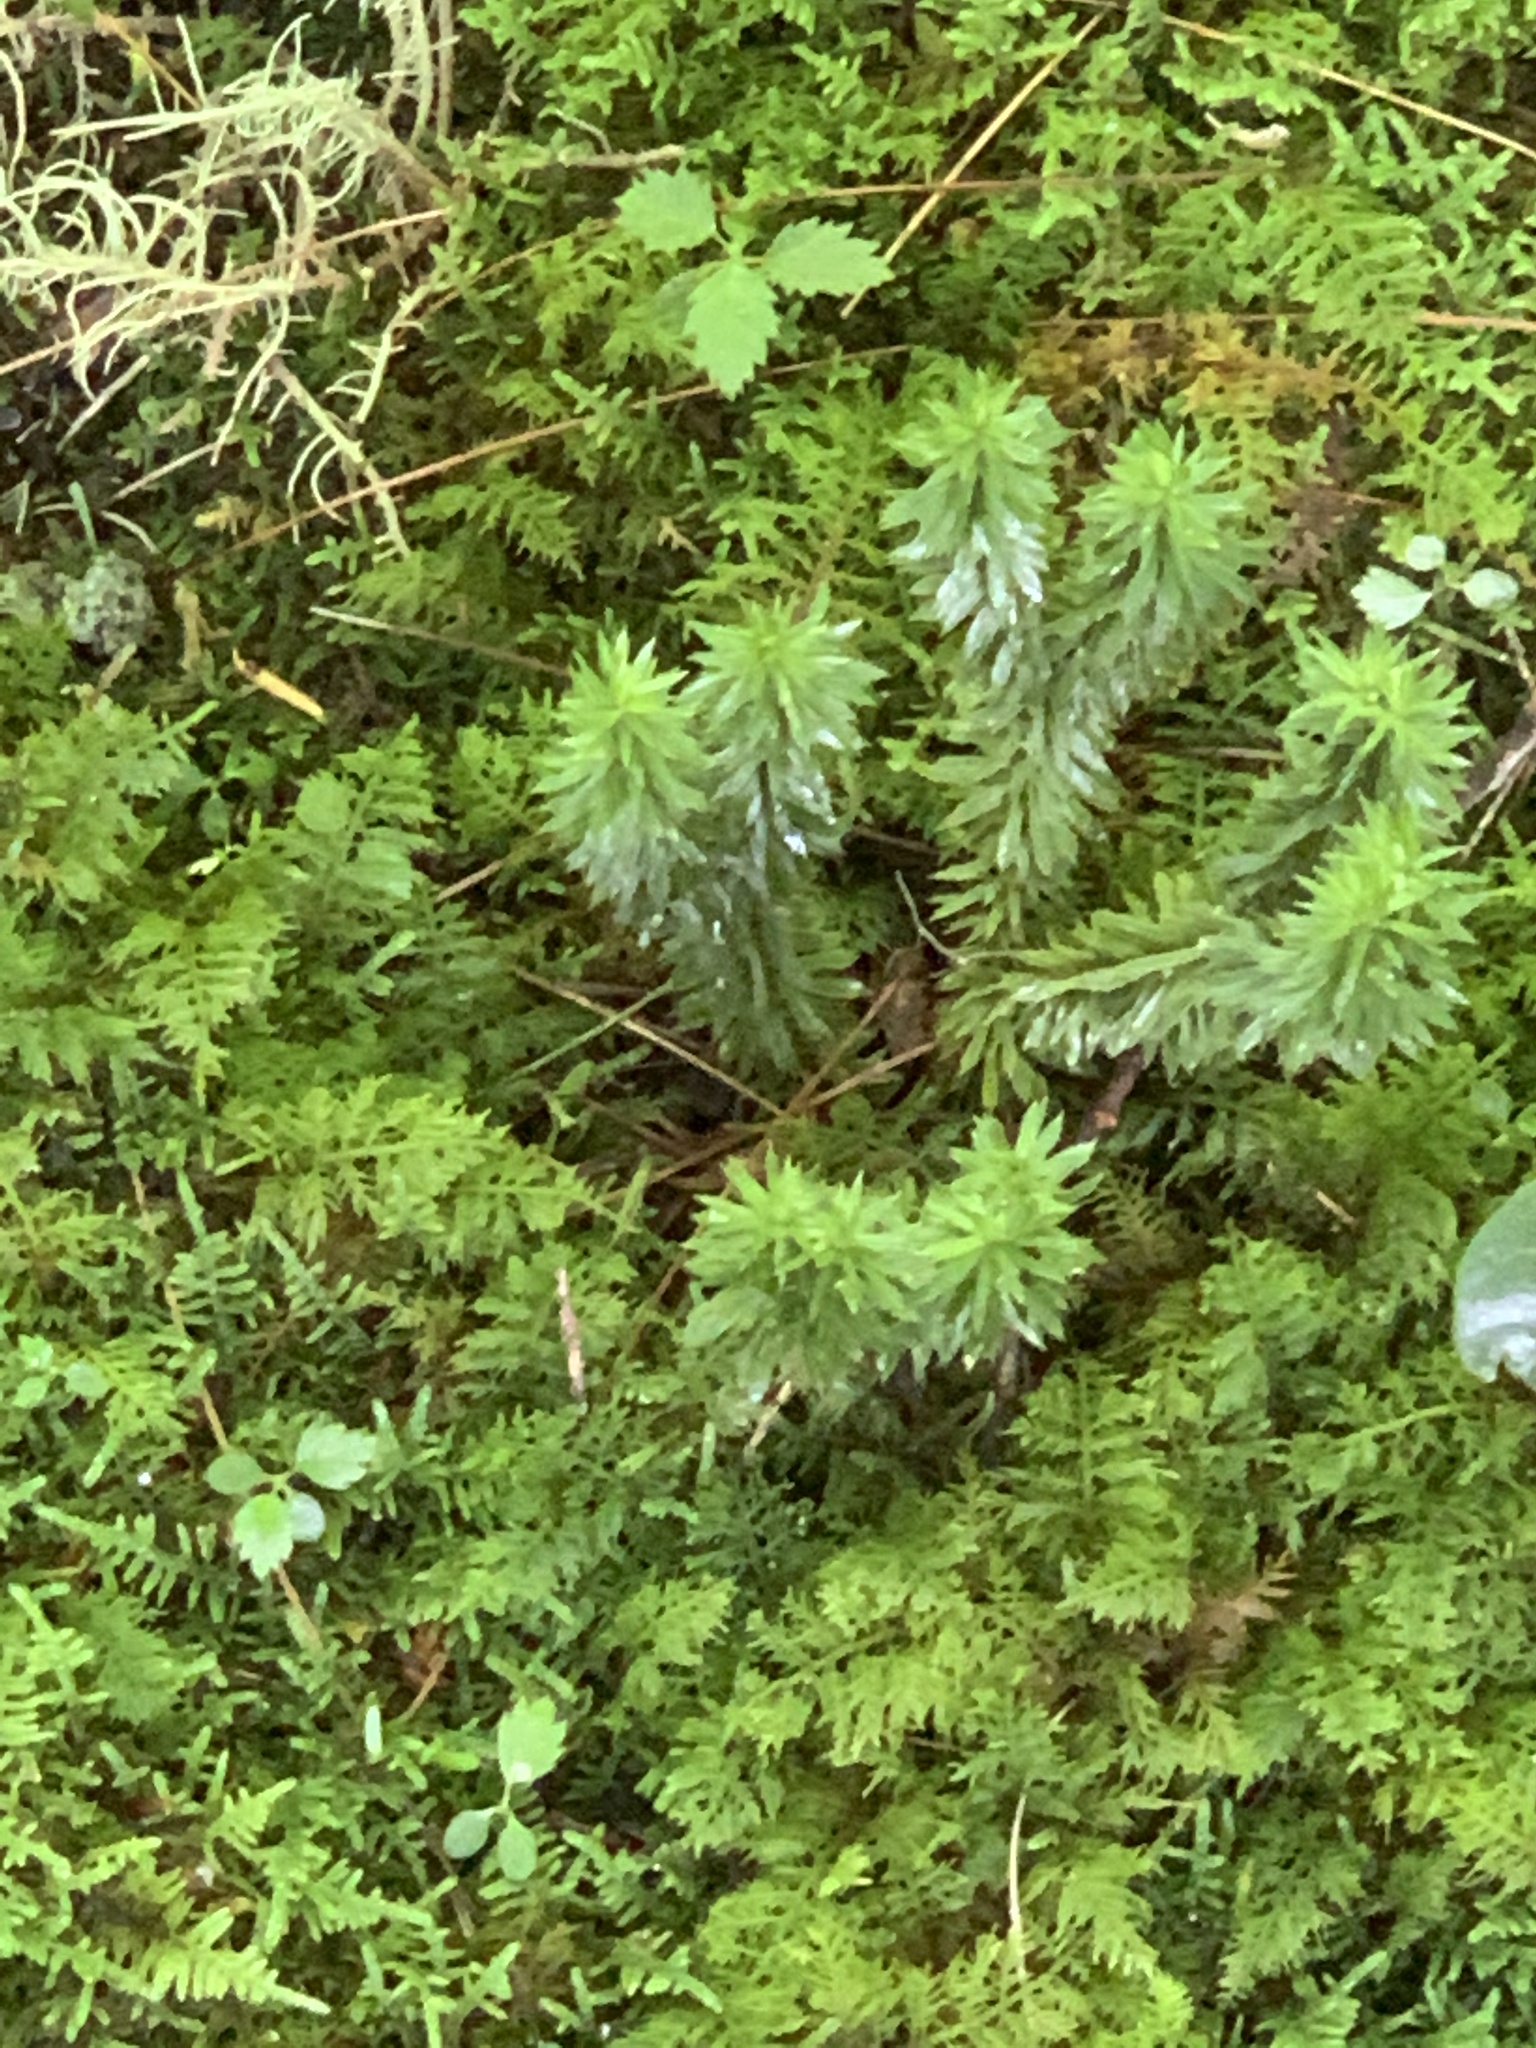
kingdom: Plantae
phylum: Tracheophyta
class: Lycopodiopsida
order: Lycopodiales
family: Lycopodiaceae
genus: Huperzia
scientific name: Huperzia lucidula
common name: Shining clubmoss
